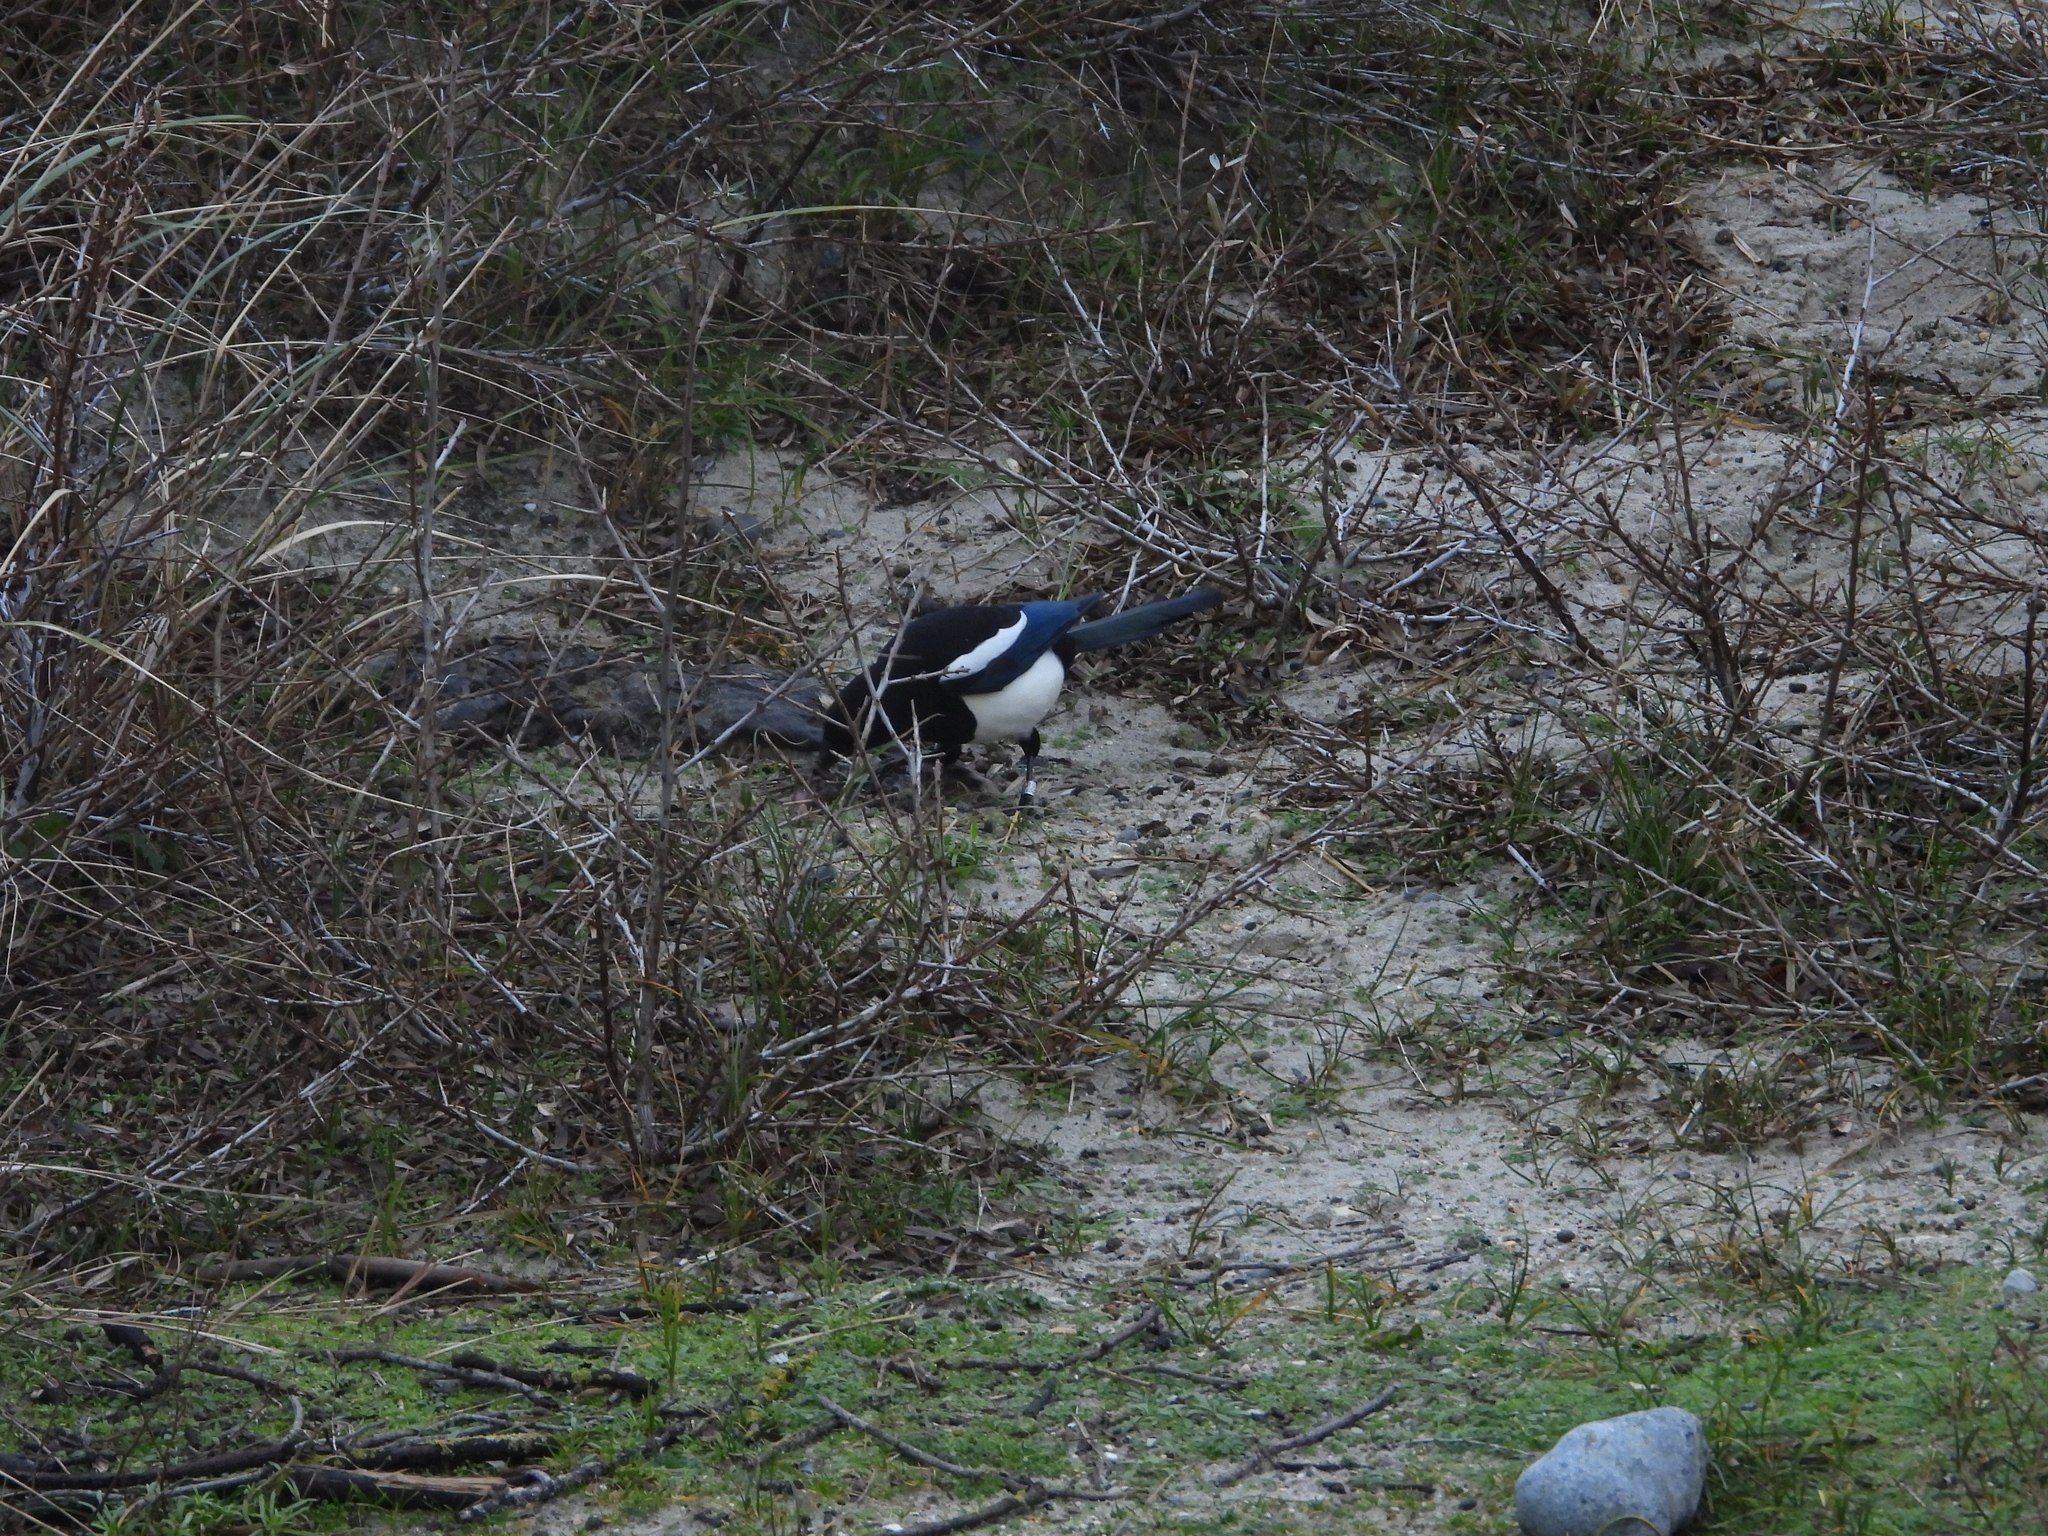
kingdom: Animalia
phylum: Chordata
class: Aves
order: Passeriformes
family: Corvidae
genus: Pica
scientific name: Pica pica
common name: Eurasian magpie
